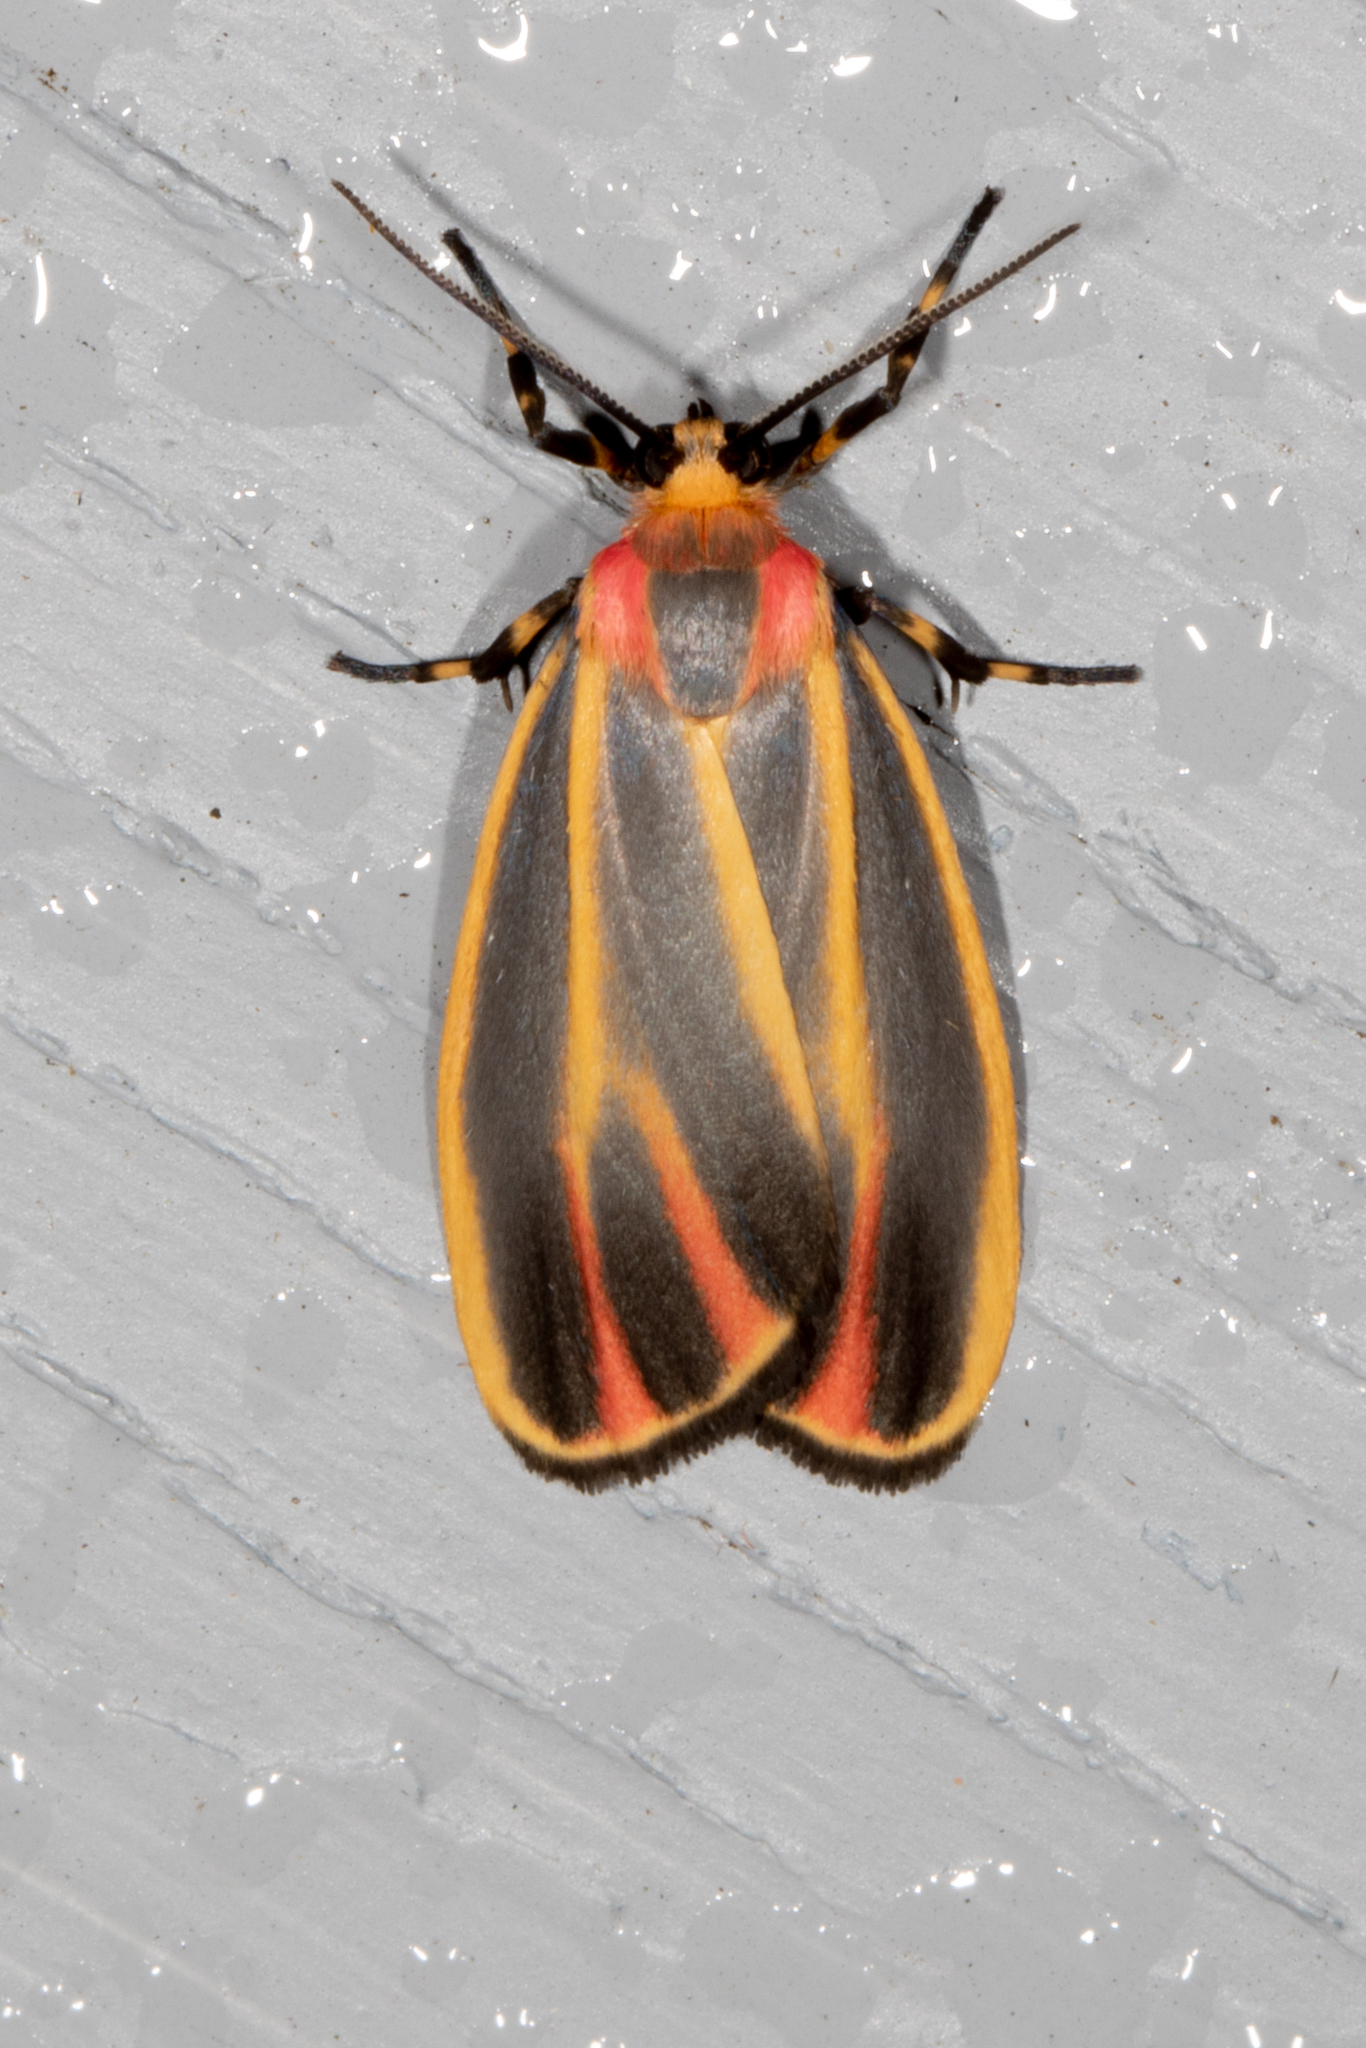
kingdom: Animalia
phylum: Arthropoda
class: Insecta
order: Lepidoptera
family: Erebidae
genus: Hypoprepia
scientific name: Hypoprepia fucosa
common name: Painted lichen moth
